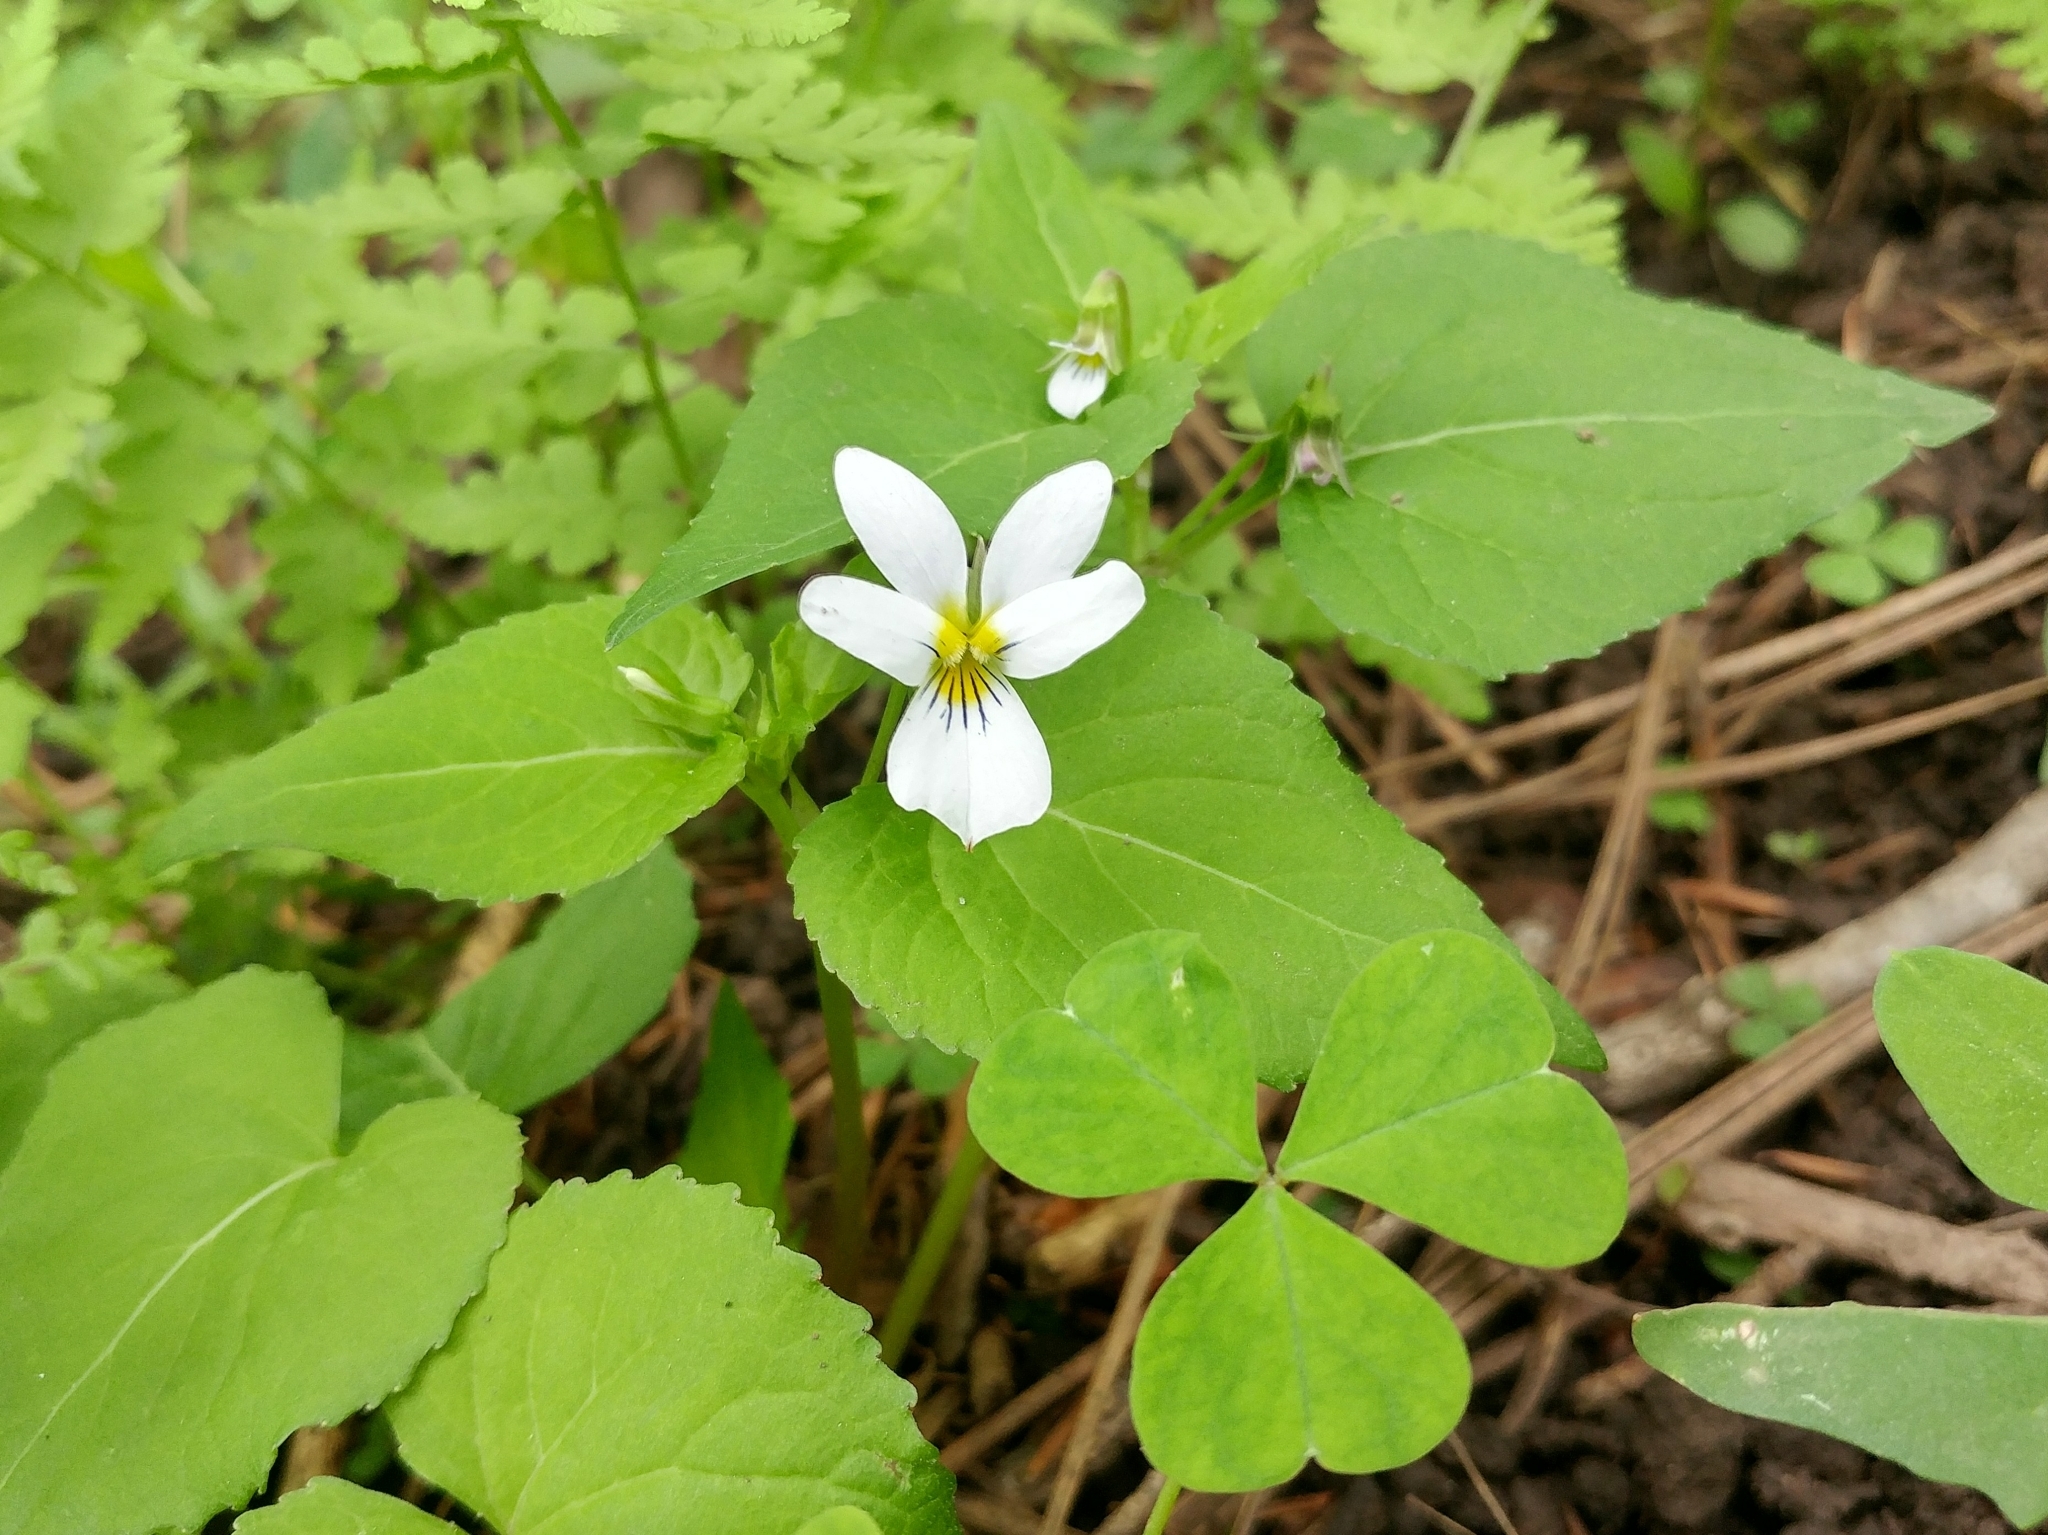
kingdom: Plantae
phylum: Tracheophyta
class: Magnoliopsida
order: Malpighiales
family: Violaceae
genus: Viola
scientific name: Viola canadensis
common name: Canada violet
